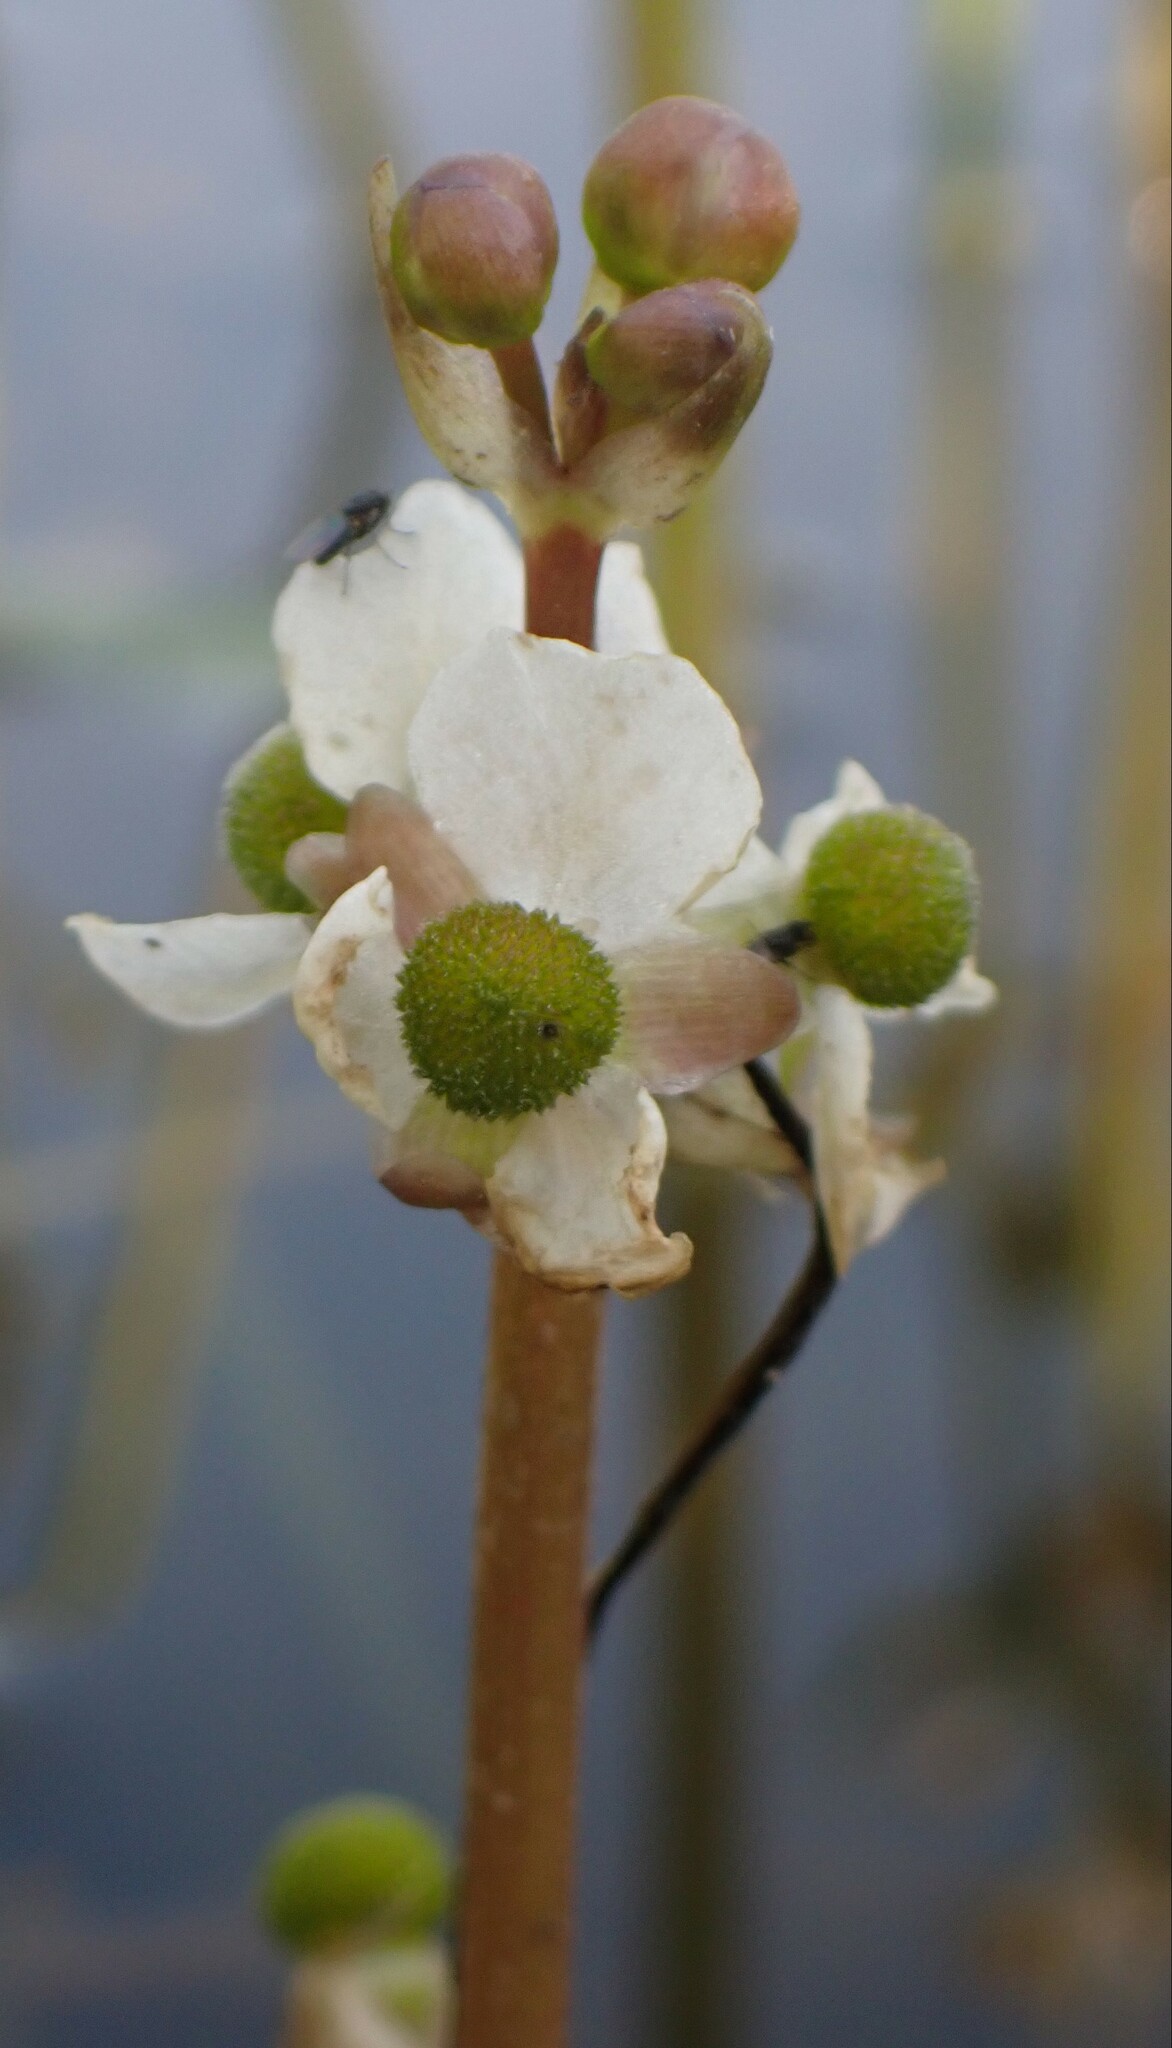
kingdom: Plantae
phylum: Tracheophyta
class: Liliopsida
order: Alismatales
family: Alismataceae
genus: Sagittaria
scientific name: Sagittaria cuneata
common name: Northern arrowhead
